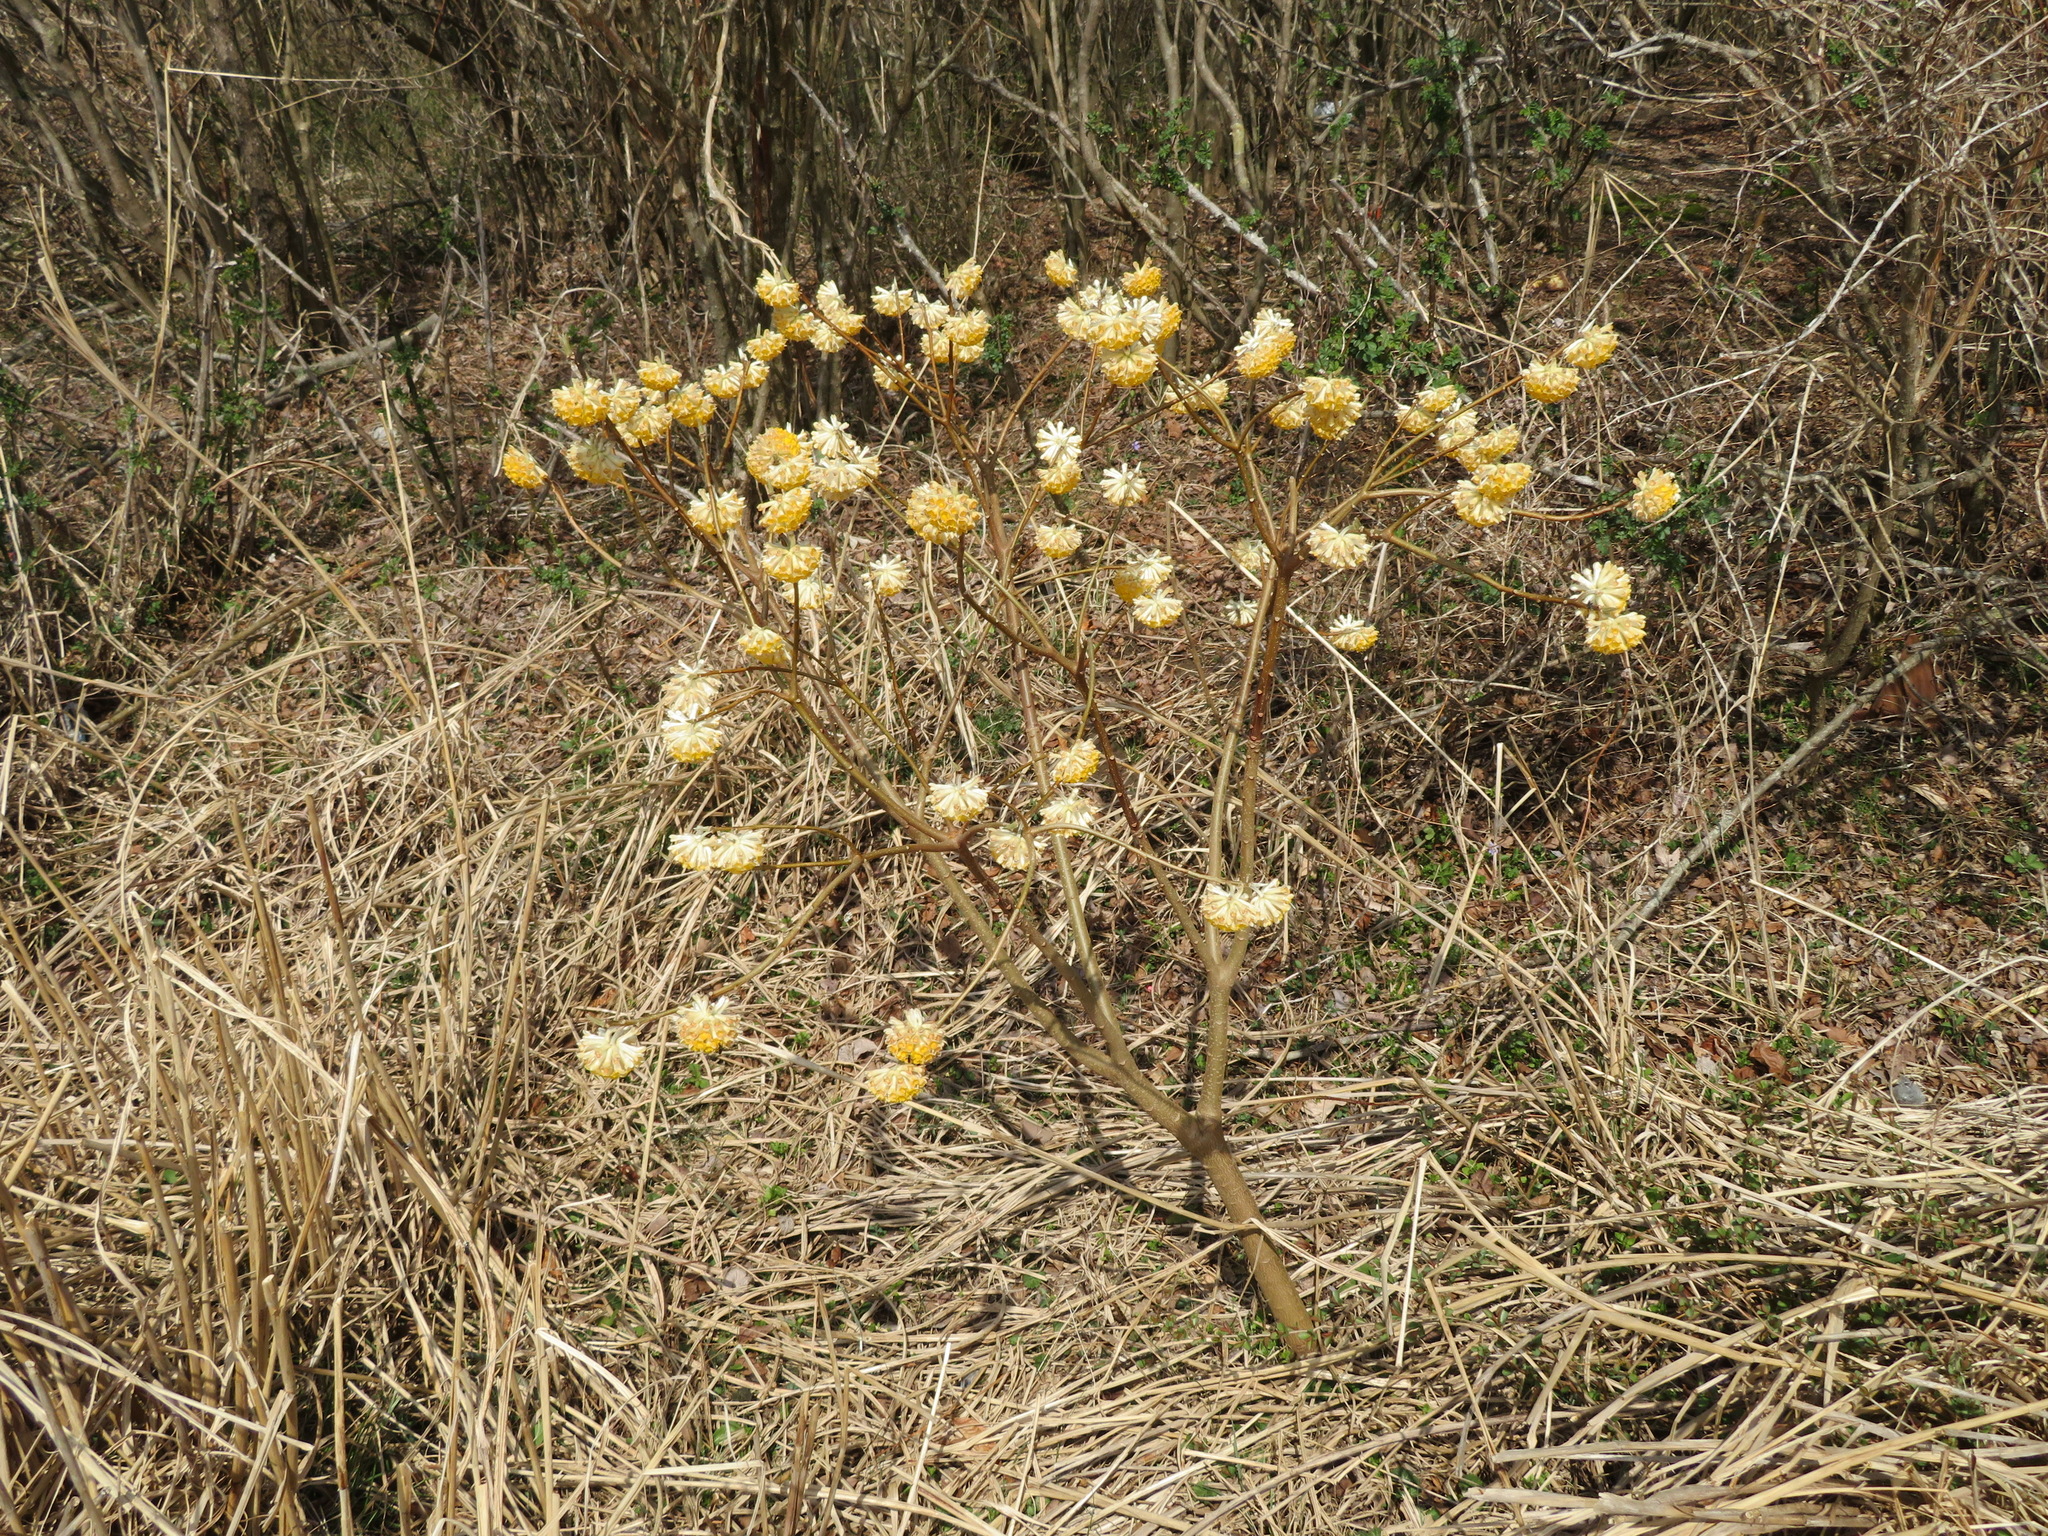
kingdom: Plantae
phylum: Tracheophyta
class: Magnoliopsida
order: Malvales
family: Thymelaeaceae
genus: Edgeworthia
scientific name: Edgeworthia chrysantha
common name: Oriental paperbush
